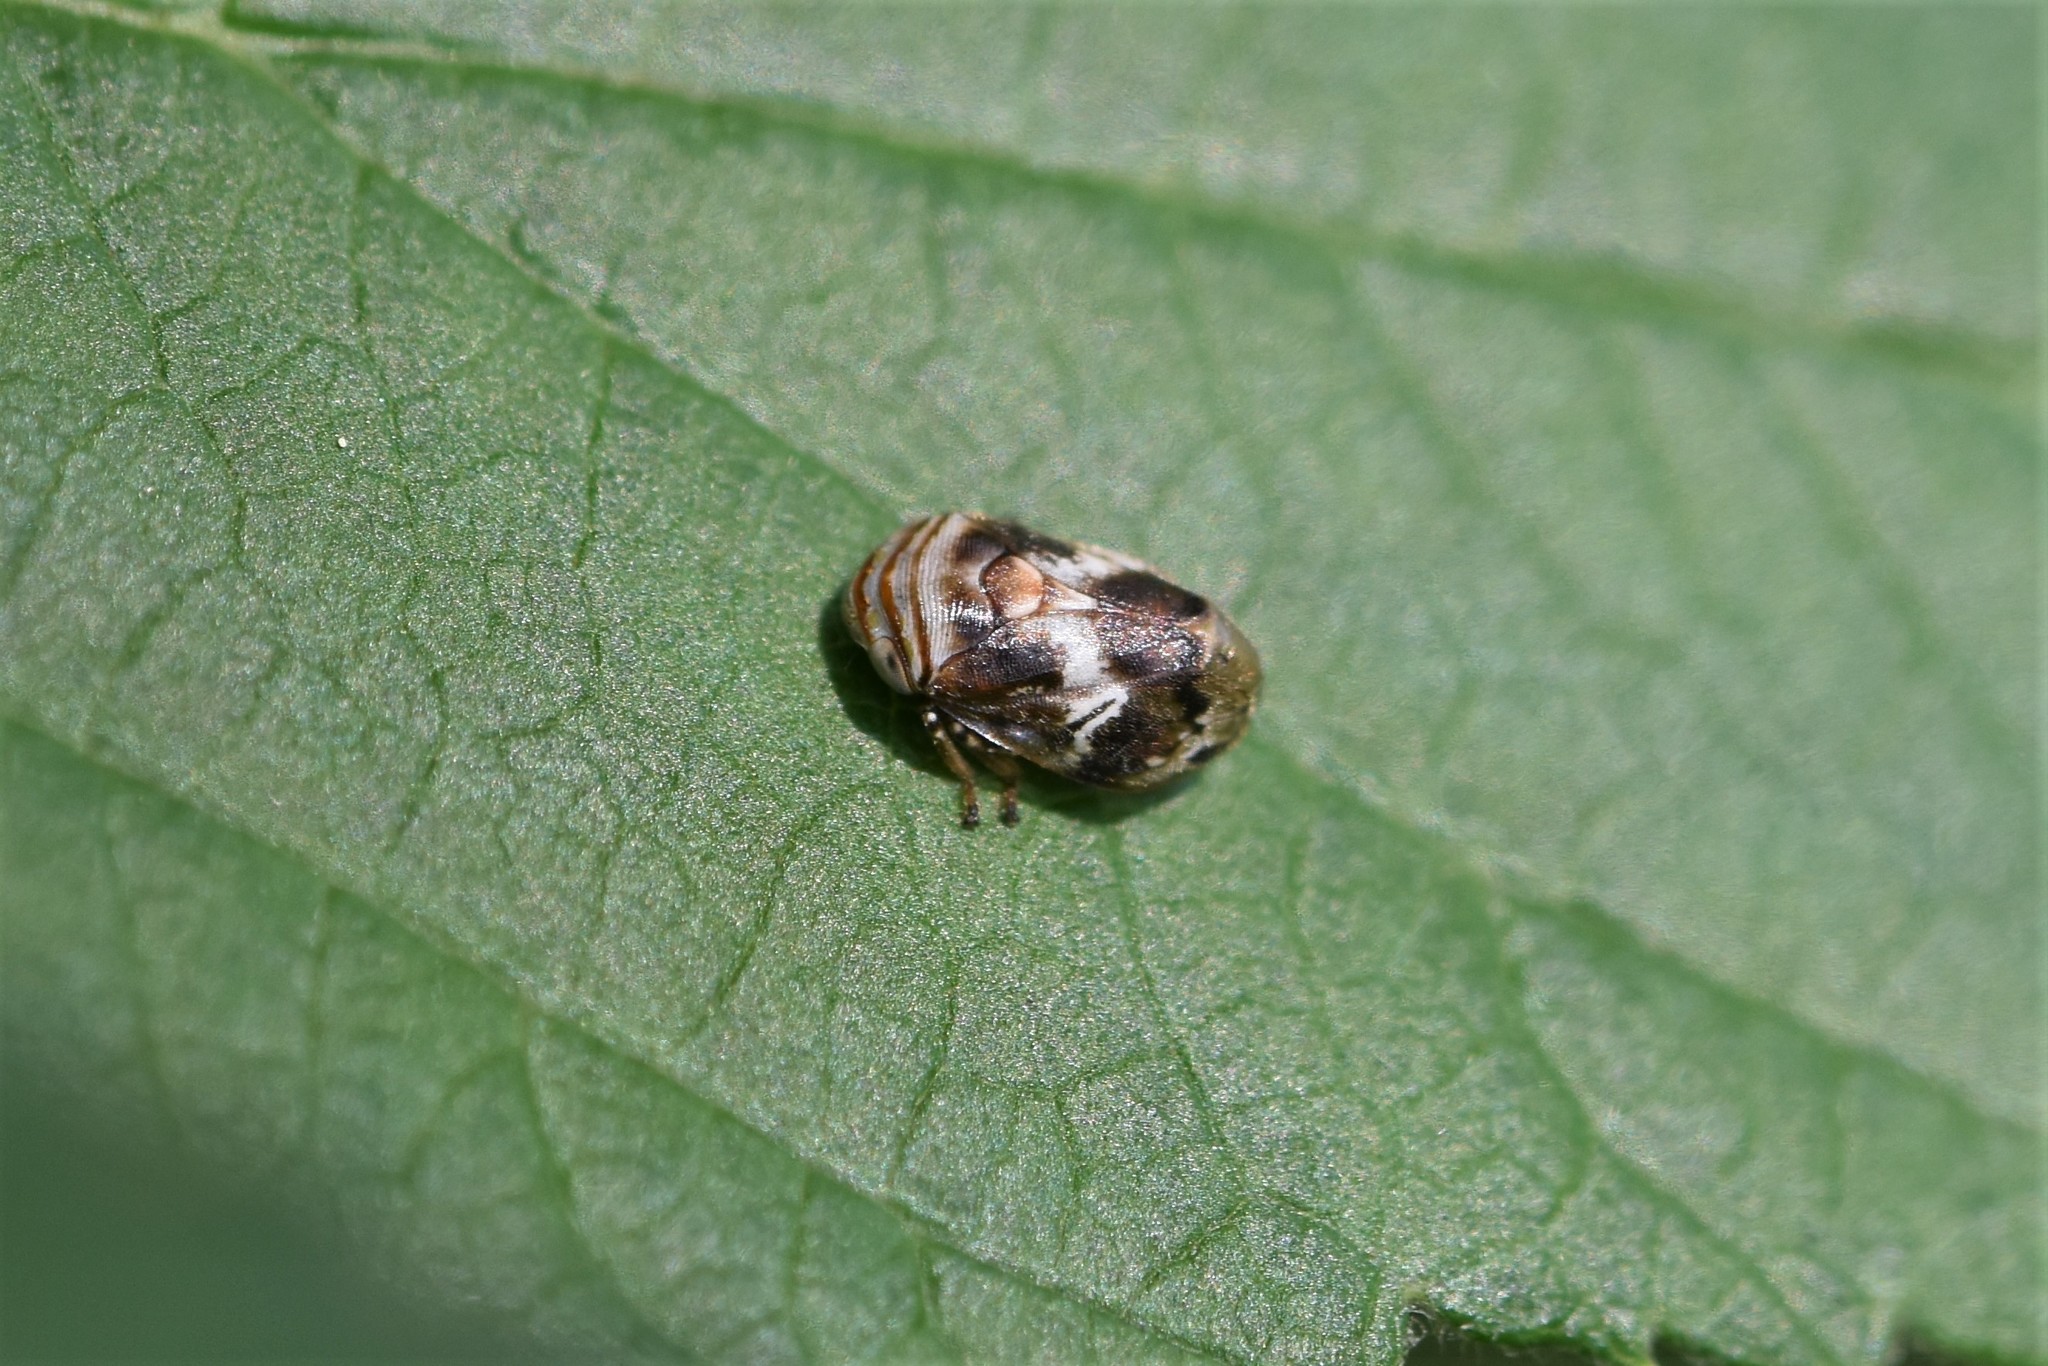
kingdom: Animalia
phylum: Arthropoda
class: Insecta
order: Hemiptera
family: Clastopteridae
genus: Clastoptera
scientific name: Clastoptera obtusa
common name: Alder spittlebug
